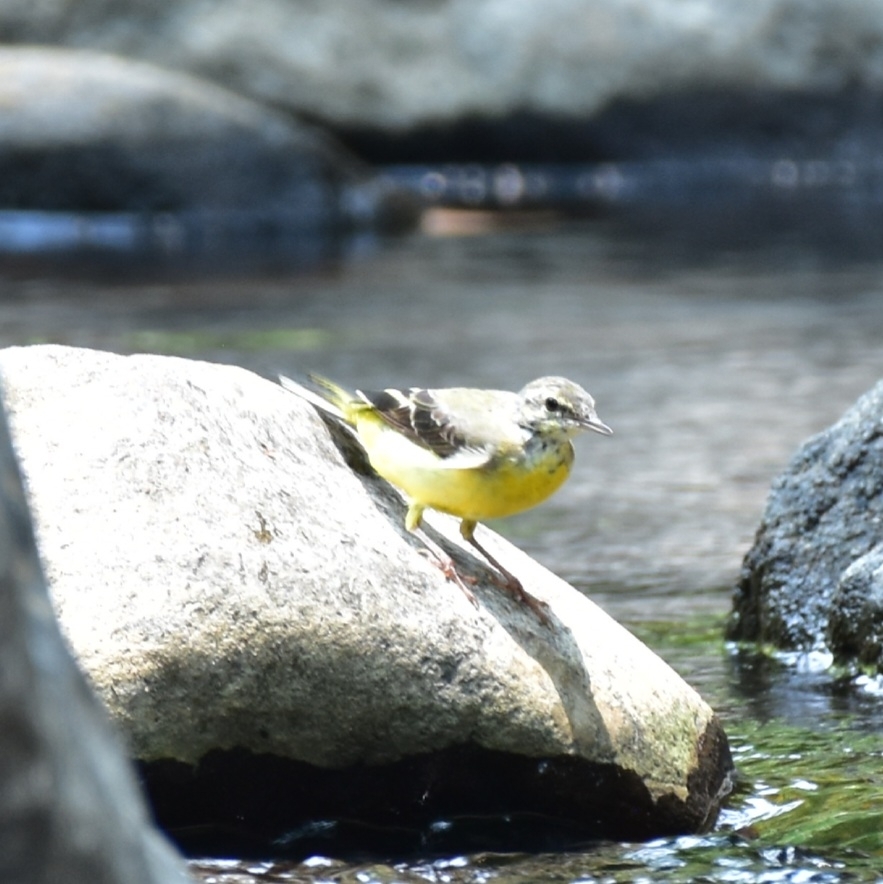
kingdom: Animalia
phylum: Chordata
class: Aves
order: Passeriformes
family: Motacillidae
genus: Motacilla
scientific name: Motacilla cinerea
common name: Grey wagtail
